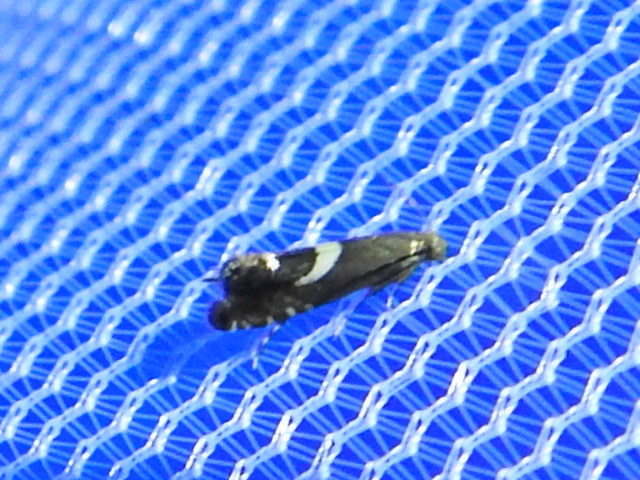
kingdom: Animalia
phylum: Arthropoda
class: Insecta
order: Lepidoptera
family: Glyphipterigidae
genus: Glyphipterix
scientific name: Glyphipterix Diploschizia impigritella
